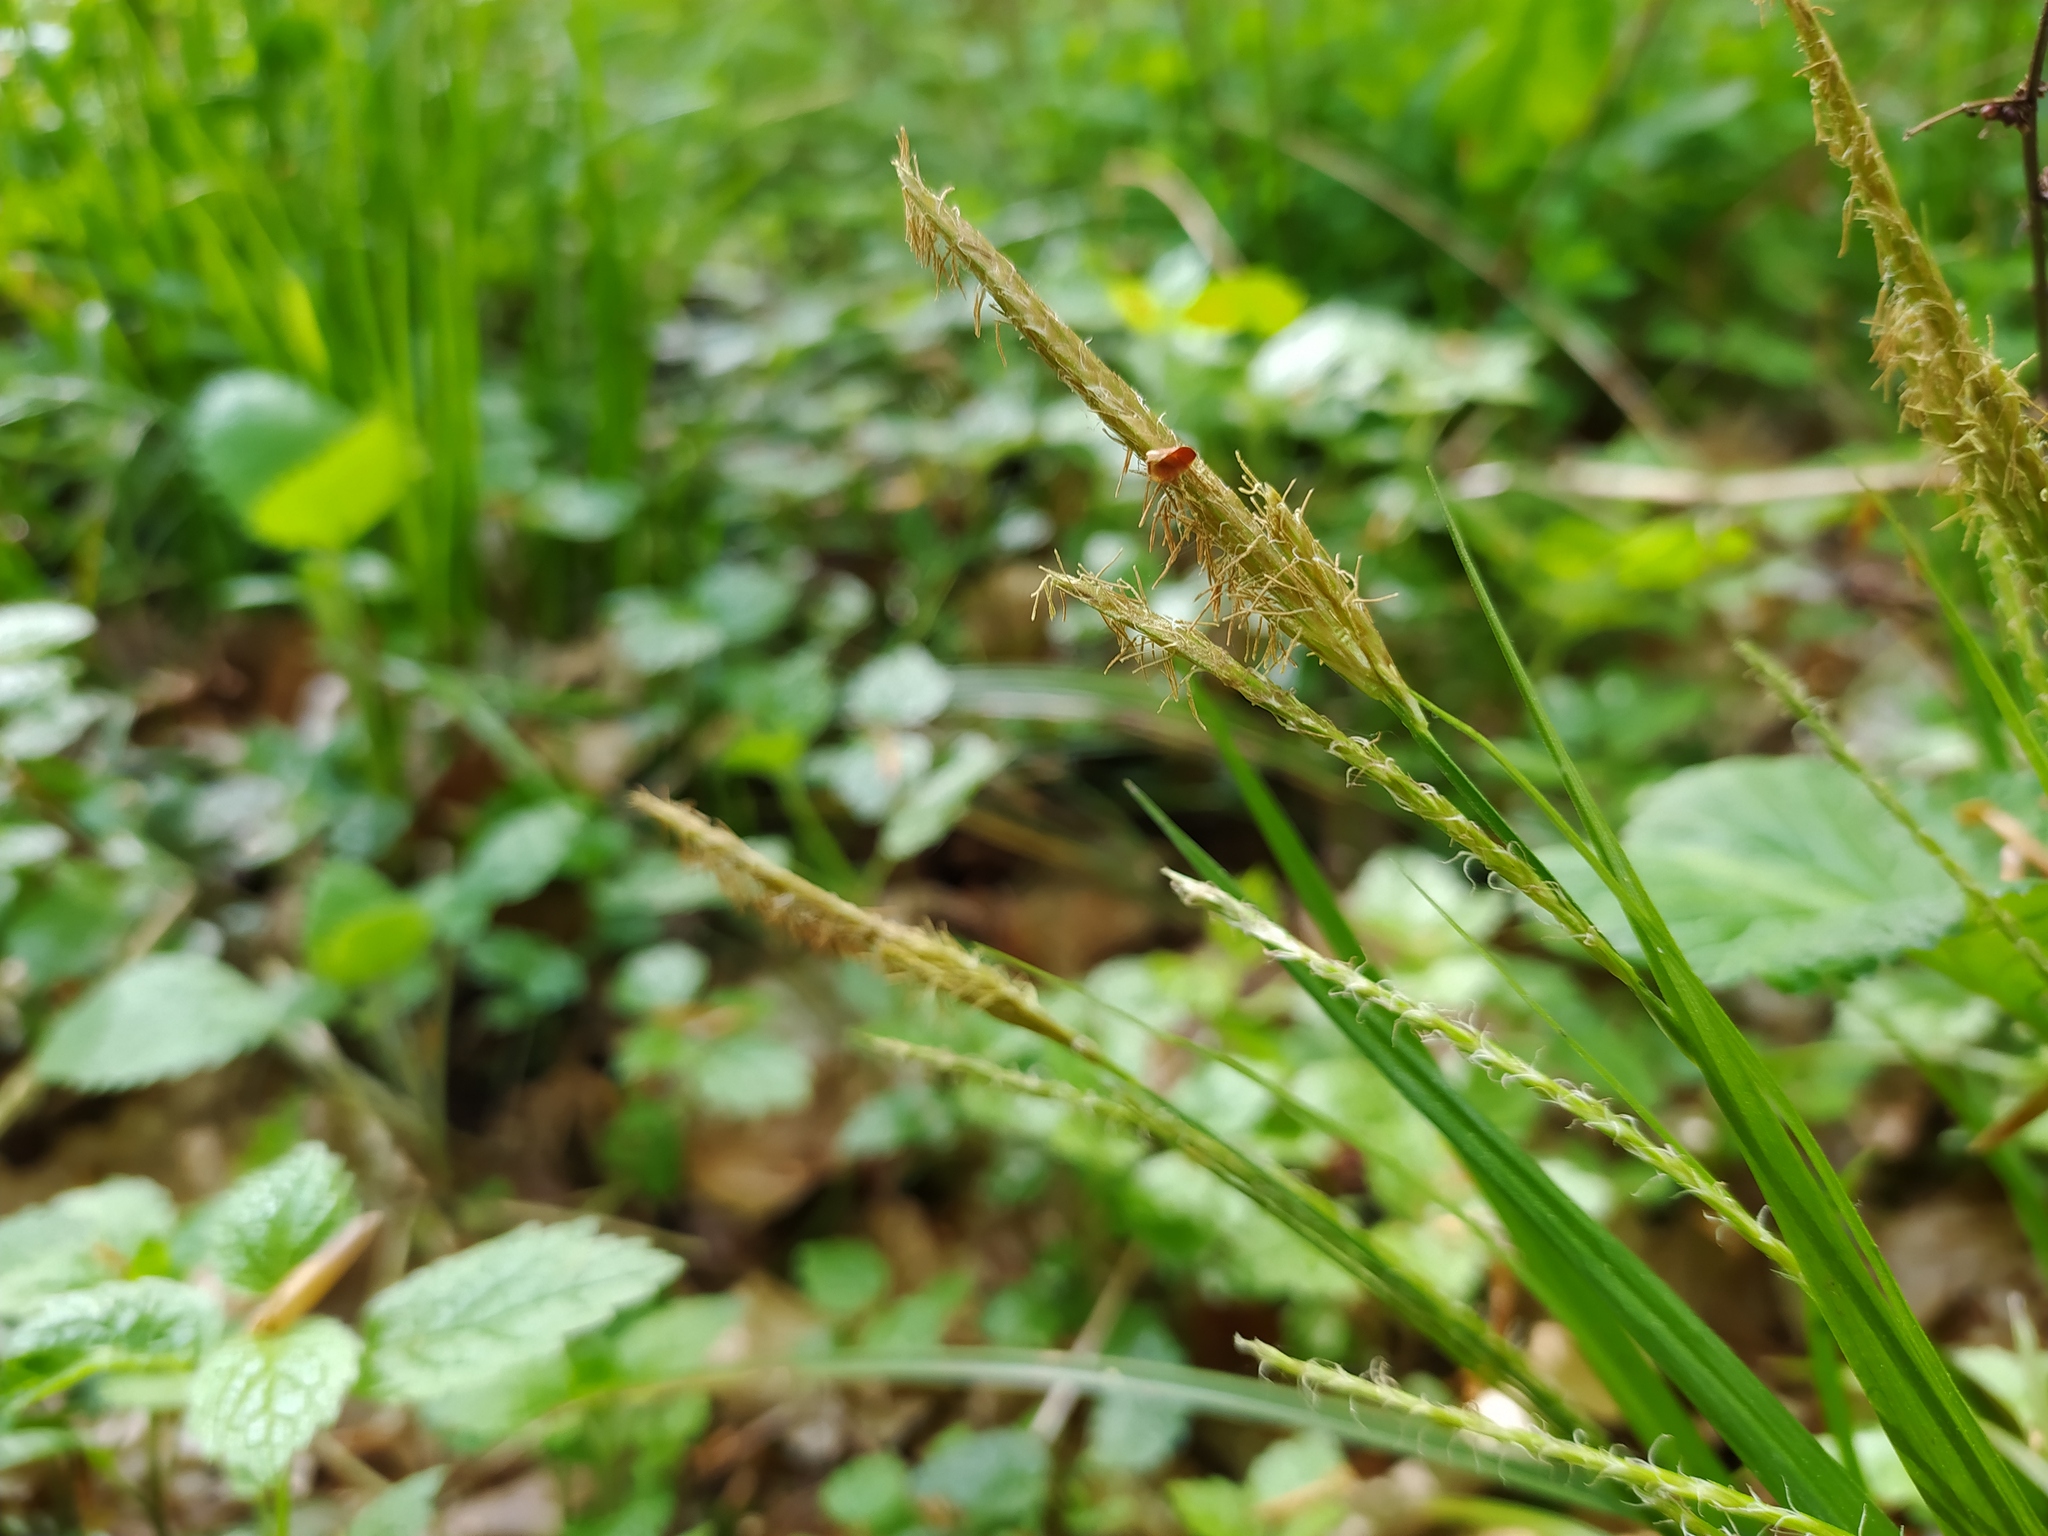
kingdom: Plantae
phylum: Tracheophyta
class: Liliopsida
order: Poales
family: Cyperaceae
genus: Carex
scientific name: Carex sylvatica
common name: Wood-sedge
